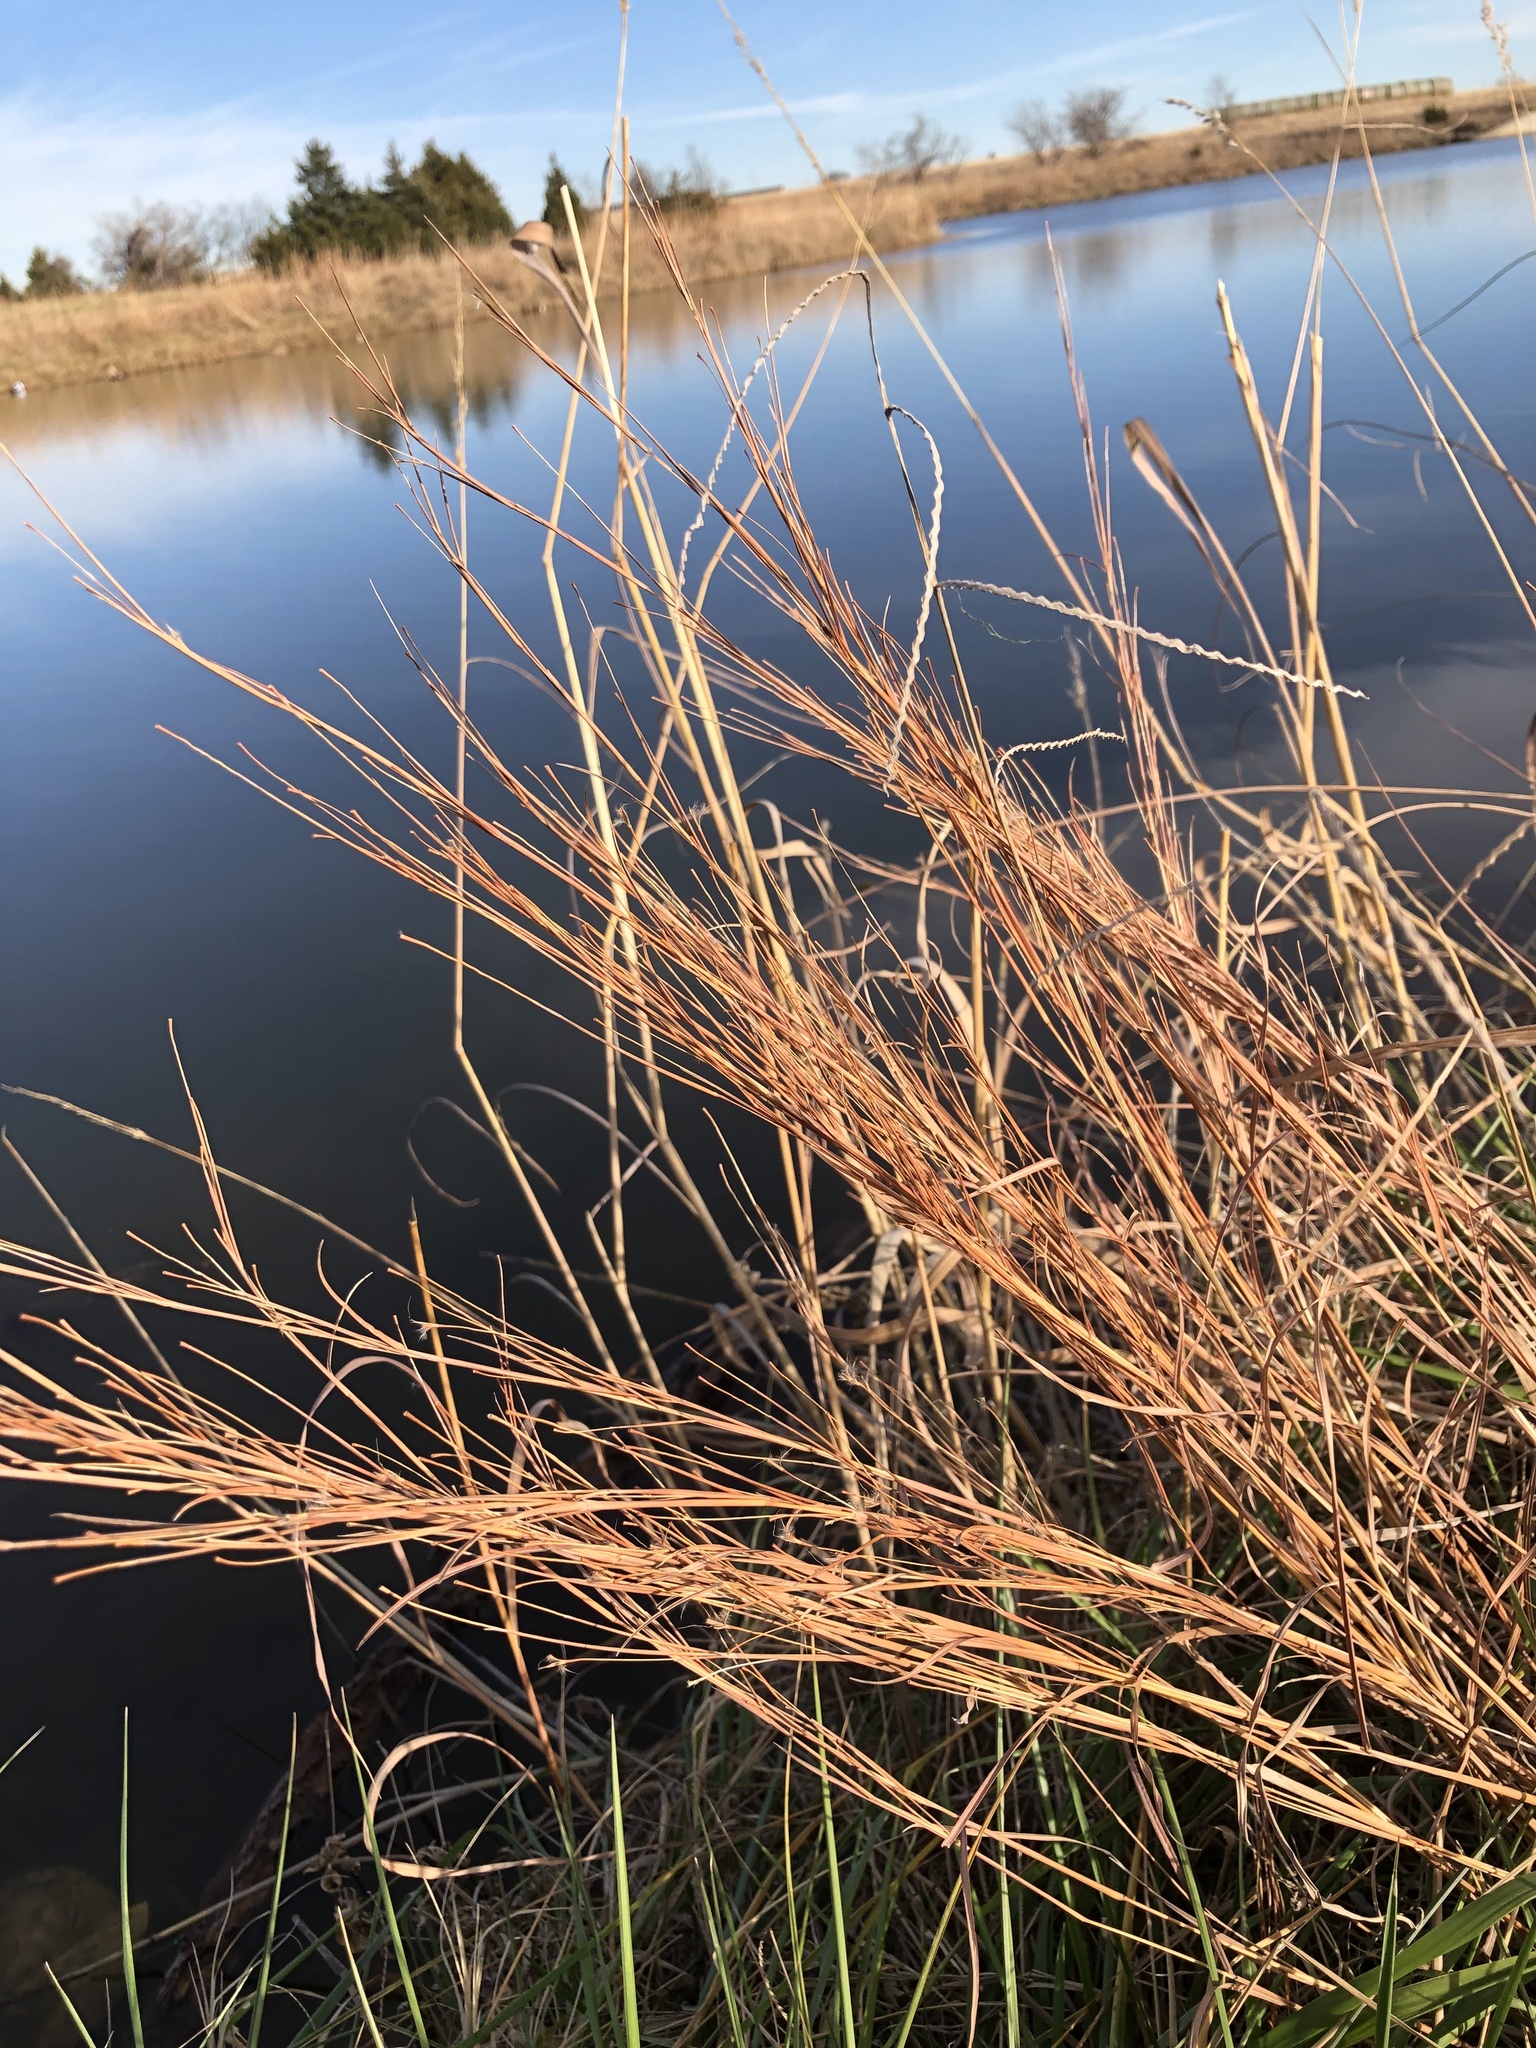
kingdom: Plantae
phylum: Tracheophyta
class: Liliopsida
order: Poales
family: Poaceae
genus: Schizachyrium
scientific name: Schizachyrium scoparium
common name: Little bluestem
